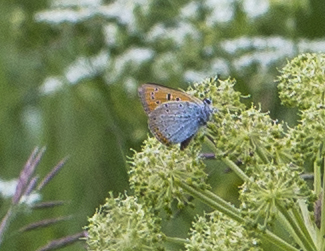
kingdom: Animalia
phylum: Arthropoda
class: Insecta
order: Lepidoptera
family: Lycaenidae
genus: Lycaena
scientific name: Lycaena dispar
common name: Large copper
